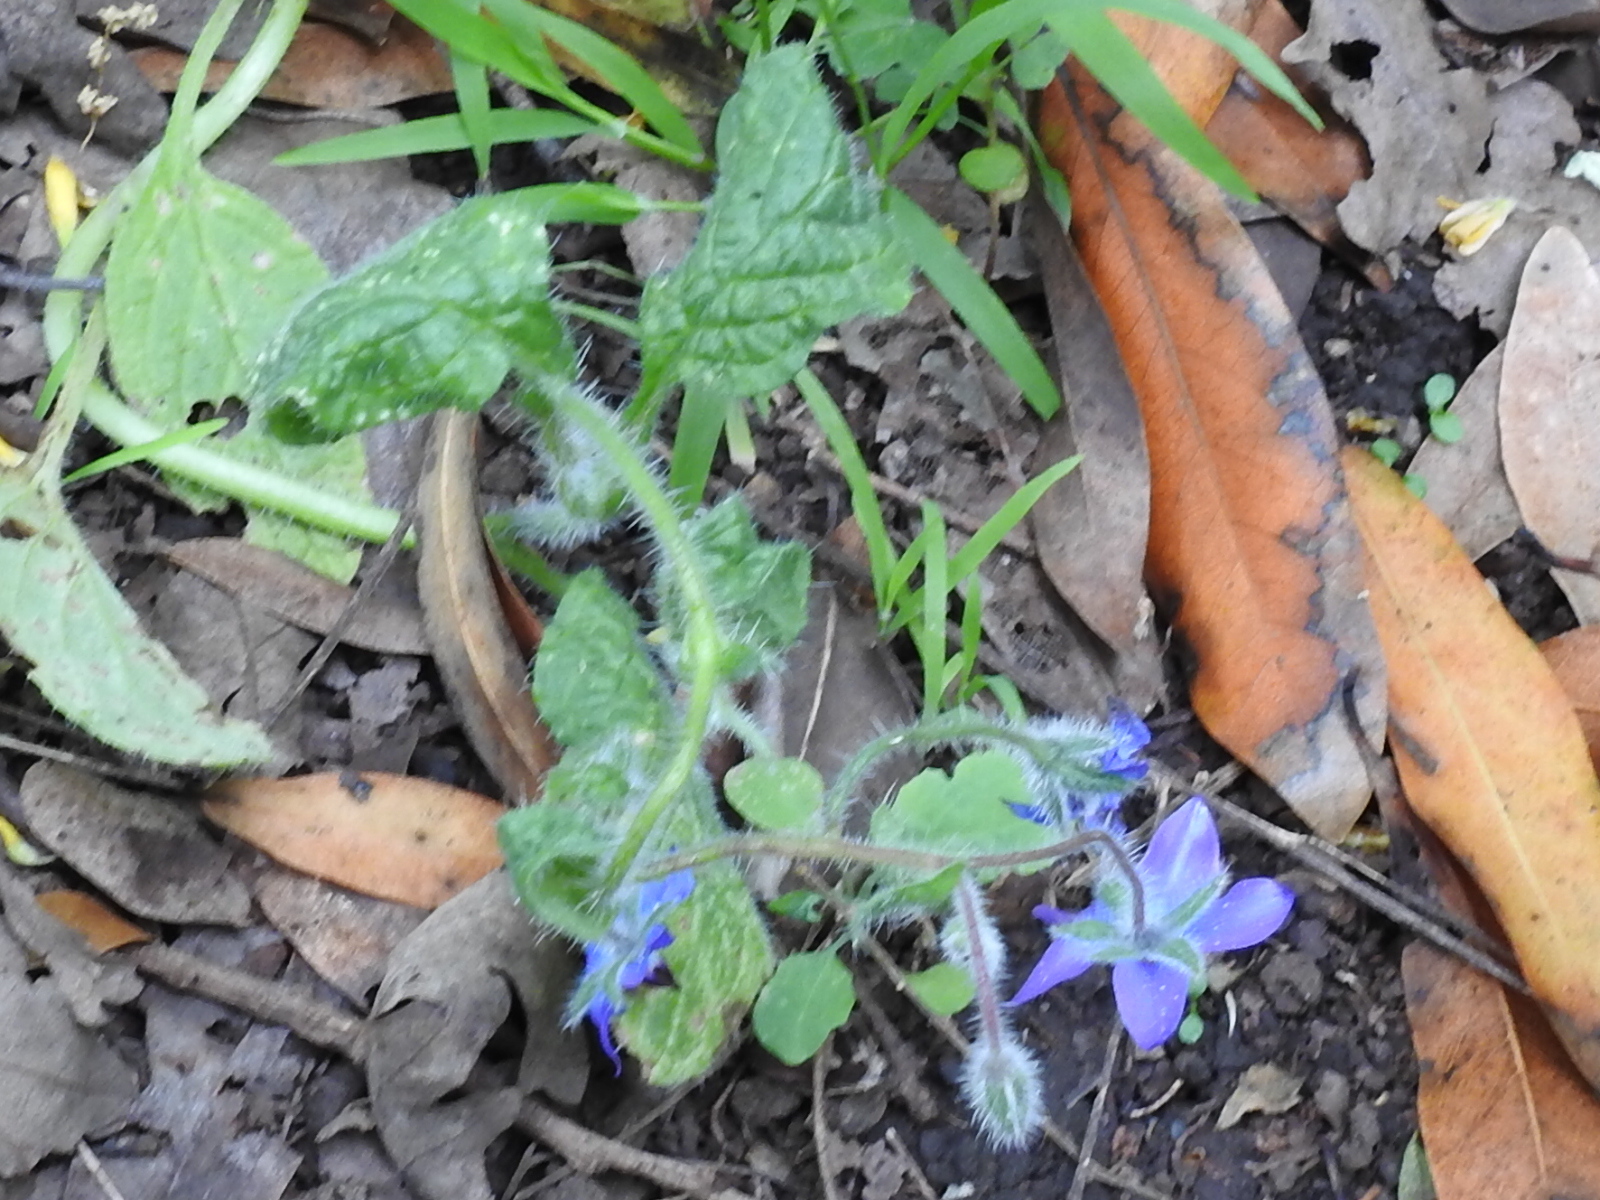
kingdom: Plantae
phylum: Tracheophyta
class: Magnoliopsida
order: Boraginales
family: Boraginaceae
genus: Borago
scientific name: Borago officinalis
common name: Borage
